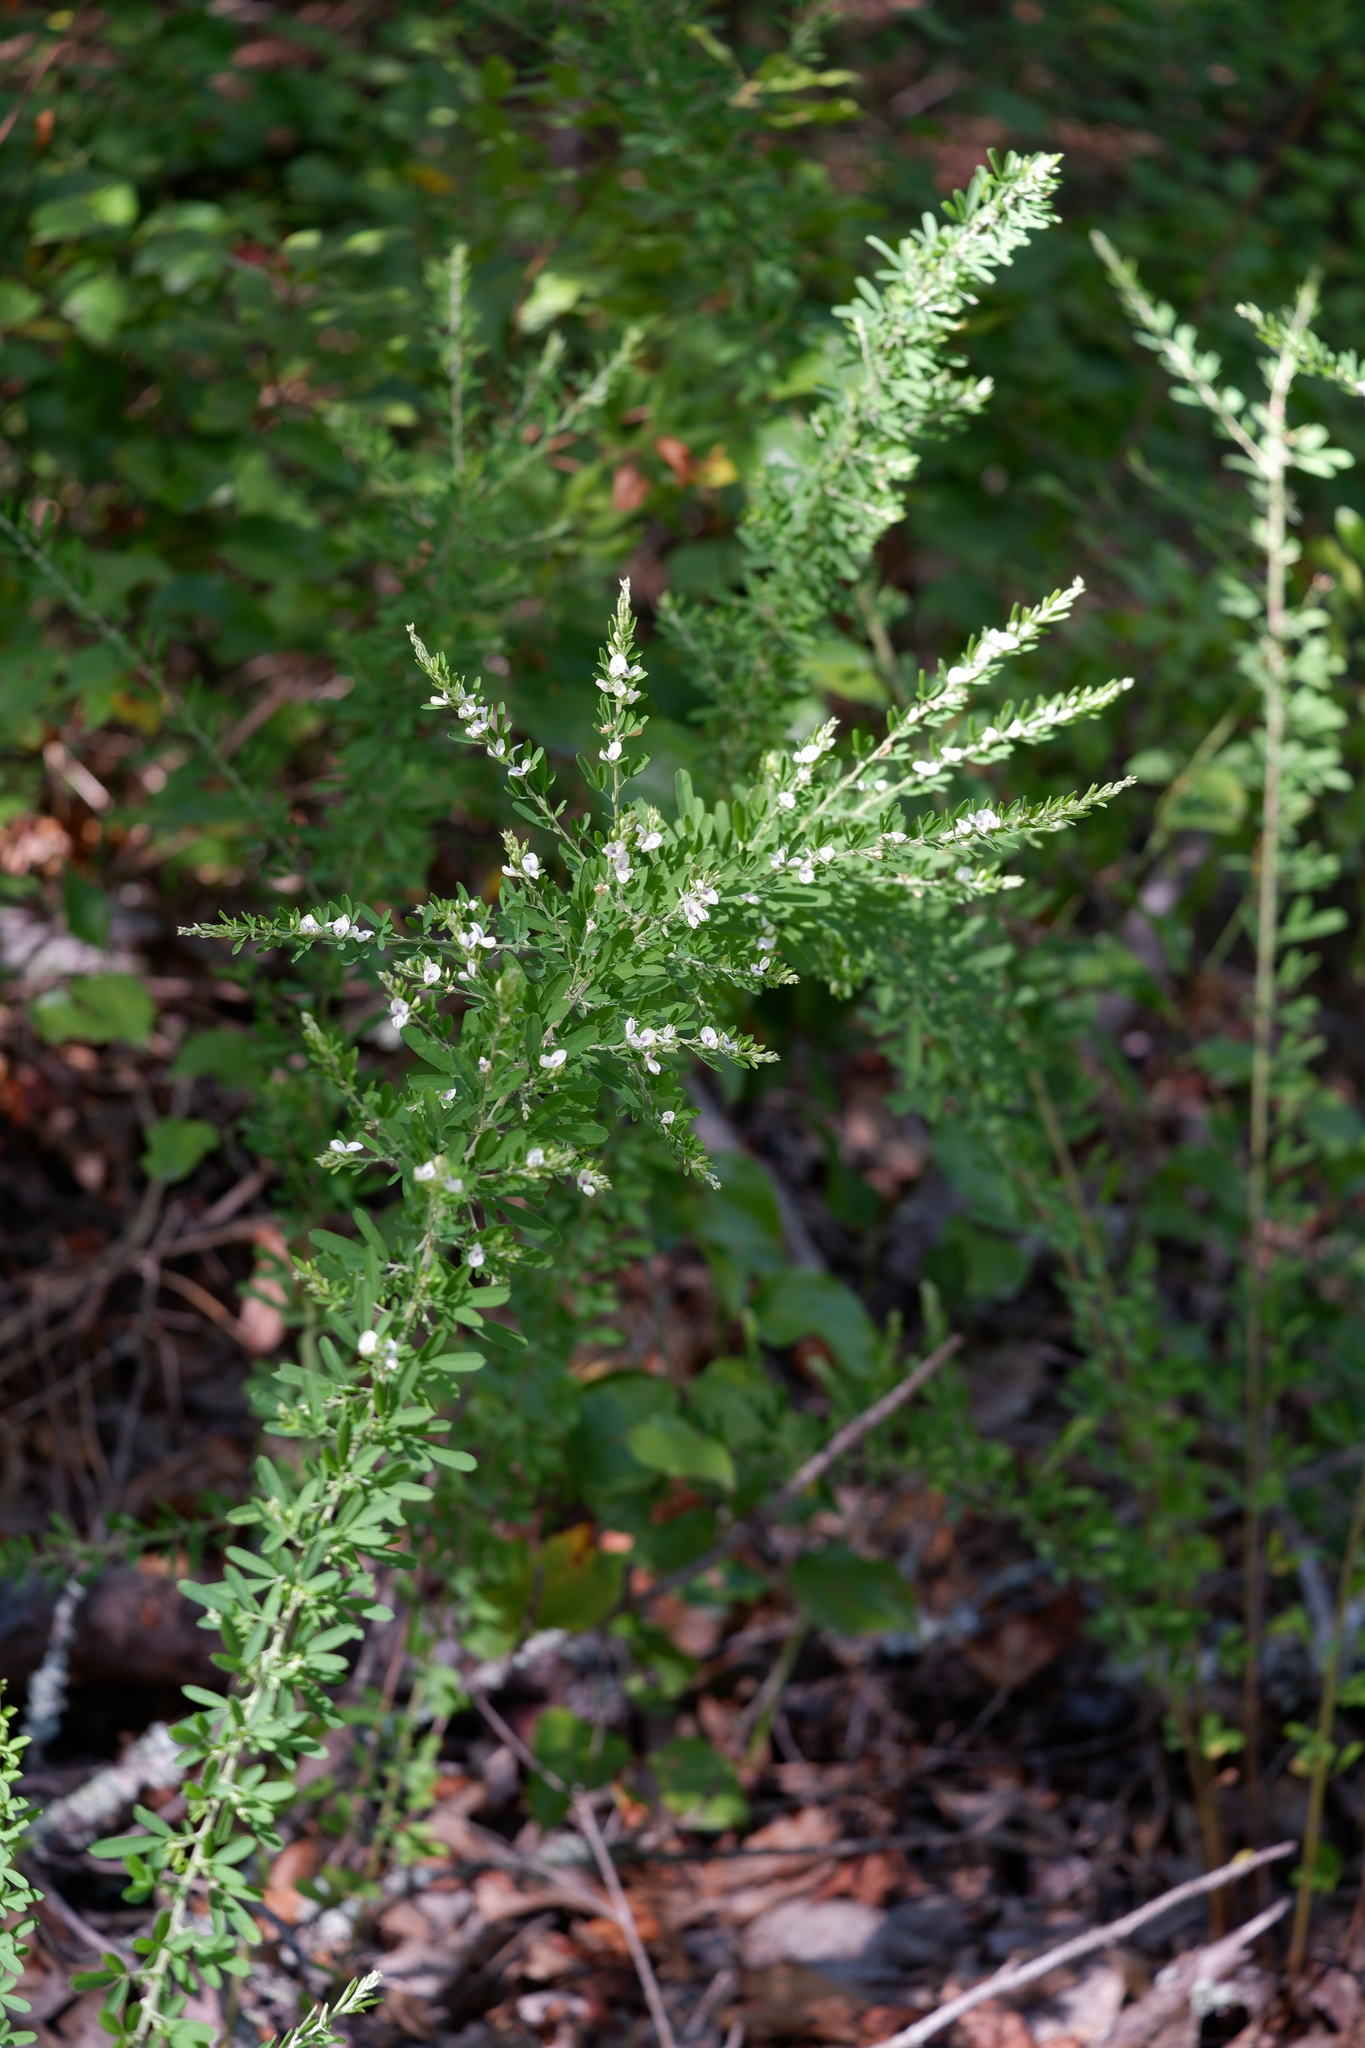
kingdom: Plantae
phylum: Tracheophyta
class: Magnoliopsida
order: Fabales
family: Fabaceae
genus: Lespedeza
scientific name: Lespedeza cuneata
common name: Chinese bush-clover
